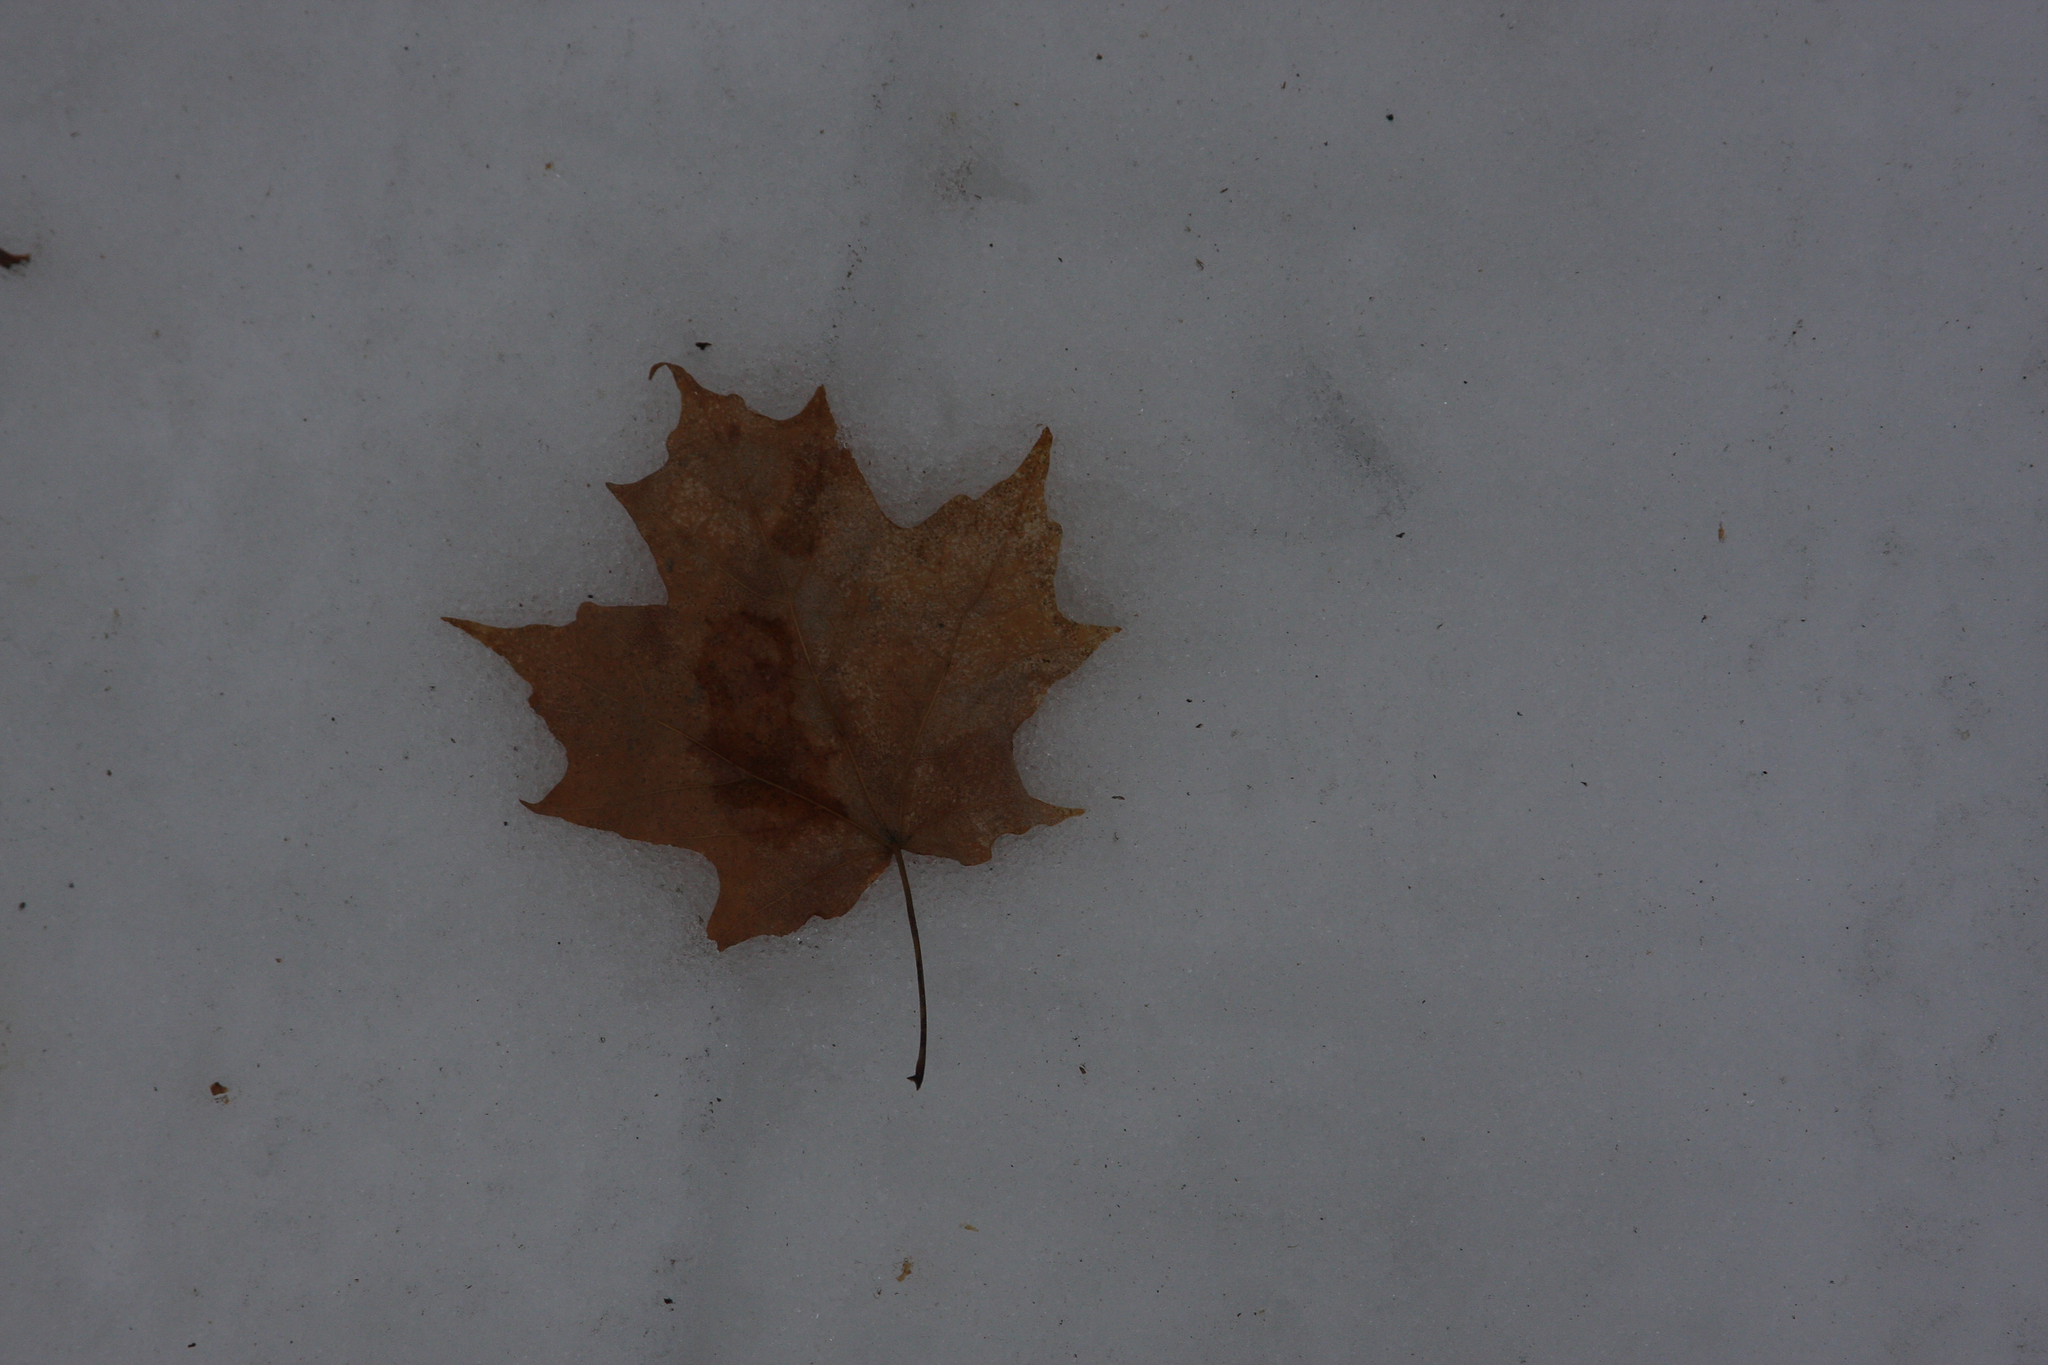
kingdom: Plantae
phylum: Tracheophyta
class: Magnoliopsida
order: Sapindales
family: Sapindaceae
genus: Acer
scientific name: Acer saccharum
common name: Sugar maple
